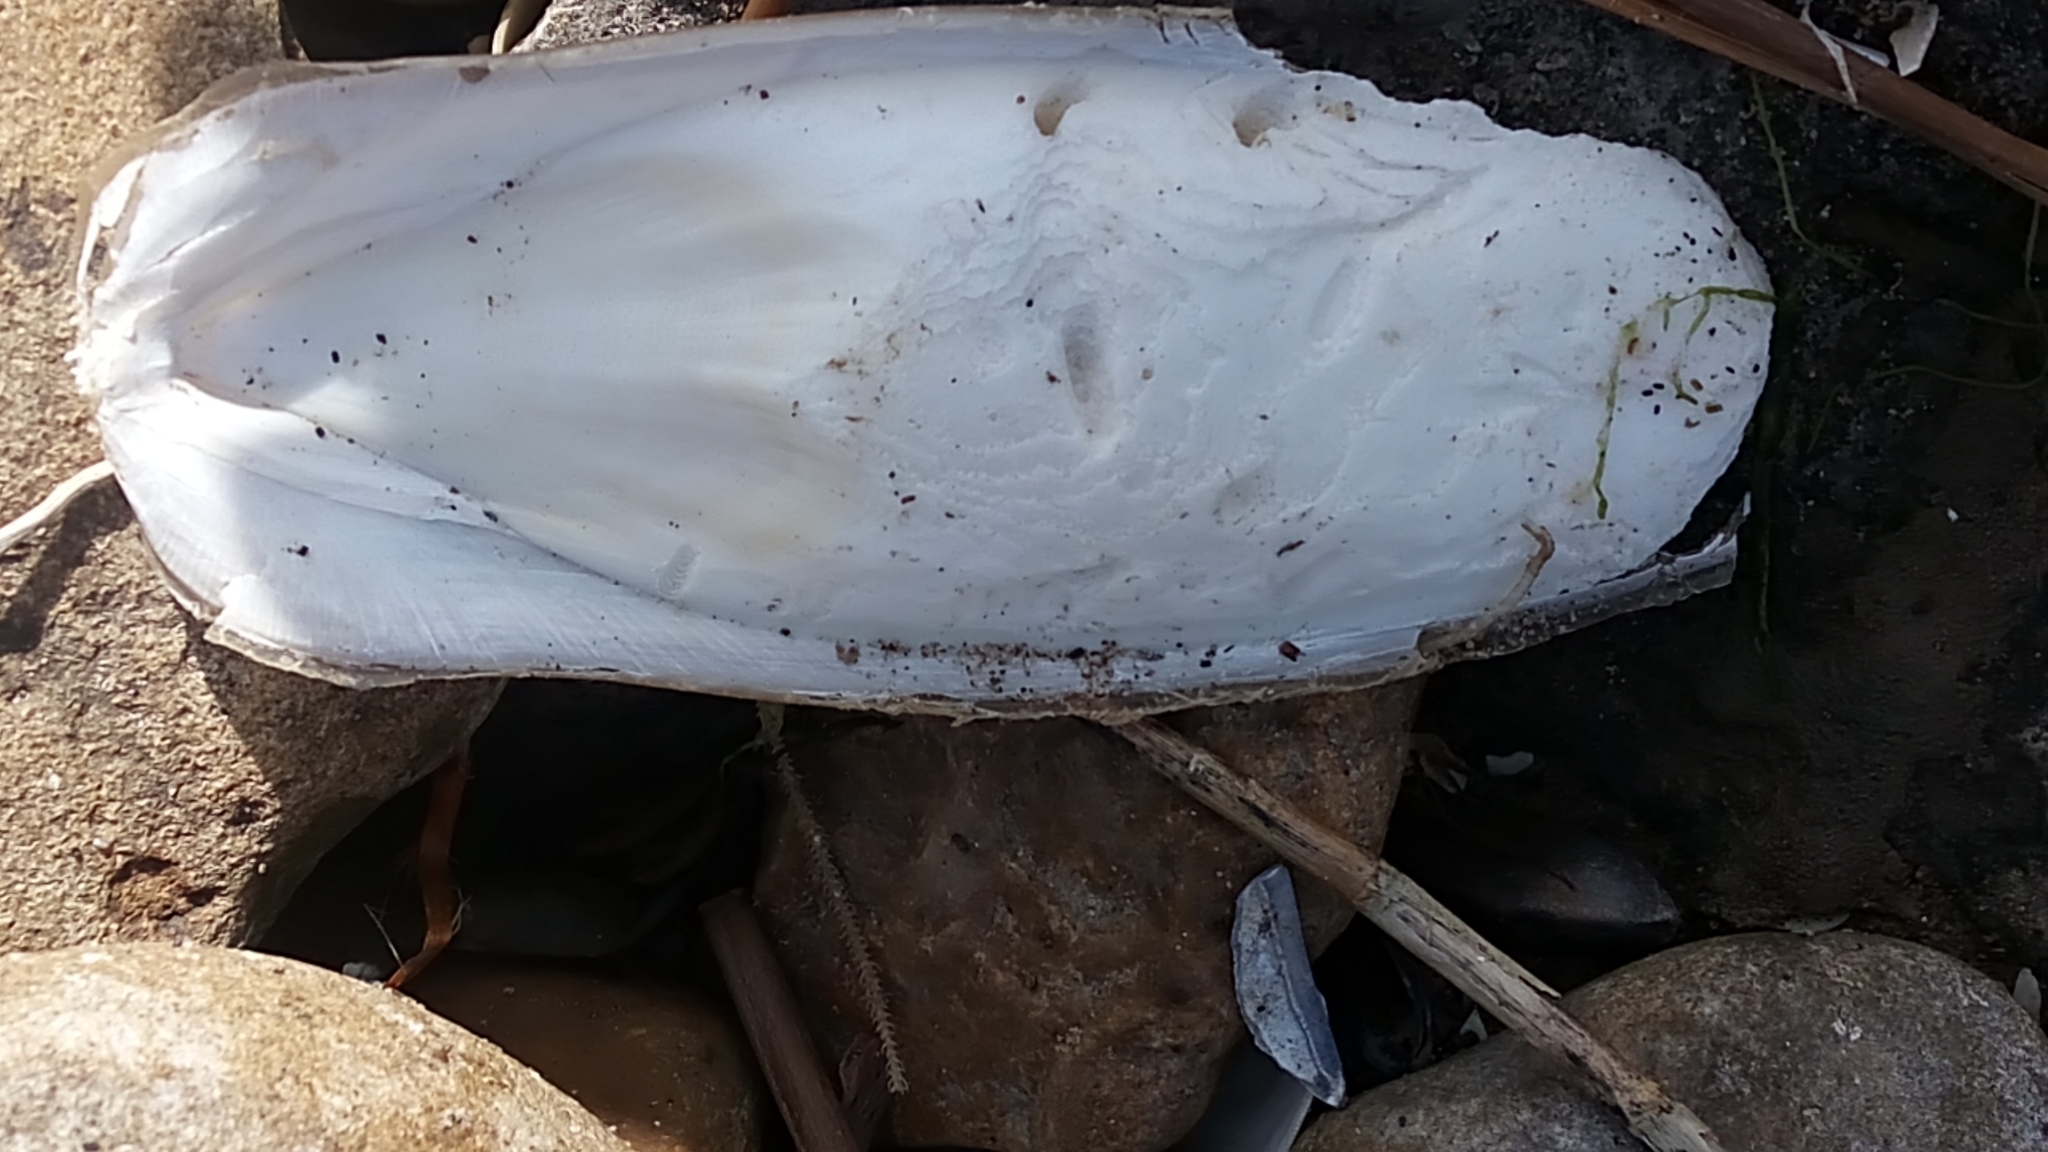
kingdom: Animalia
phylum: Mollusca
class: Cephalopoda
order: Sepiida
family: Sepiidae
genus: Sepia
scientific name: Sepia officinalis
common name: Common cuttlefish
